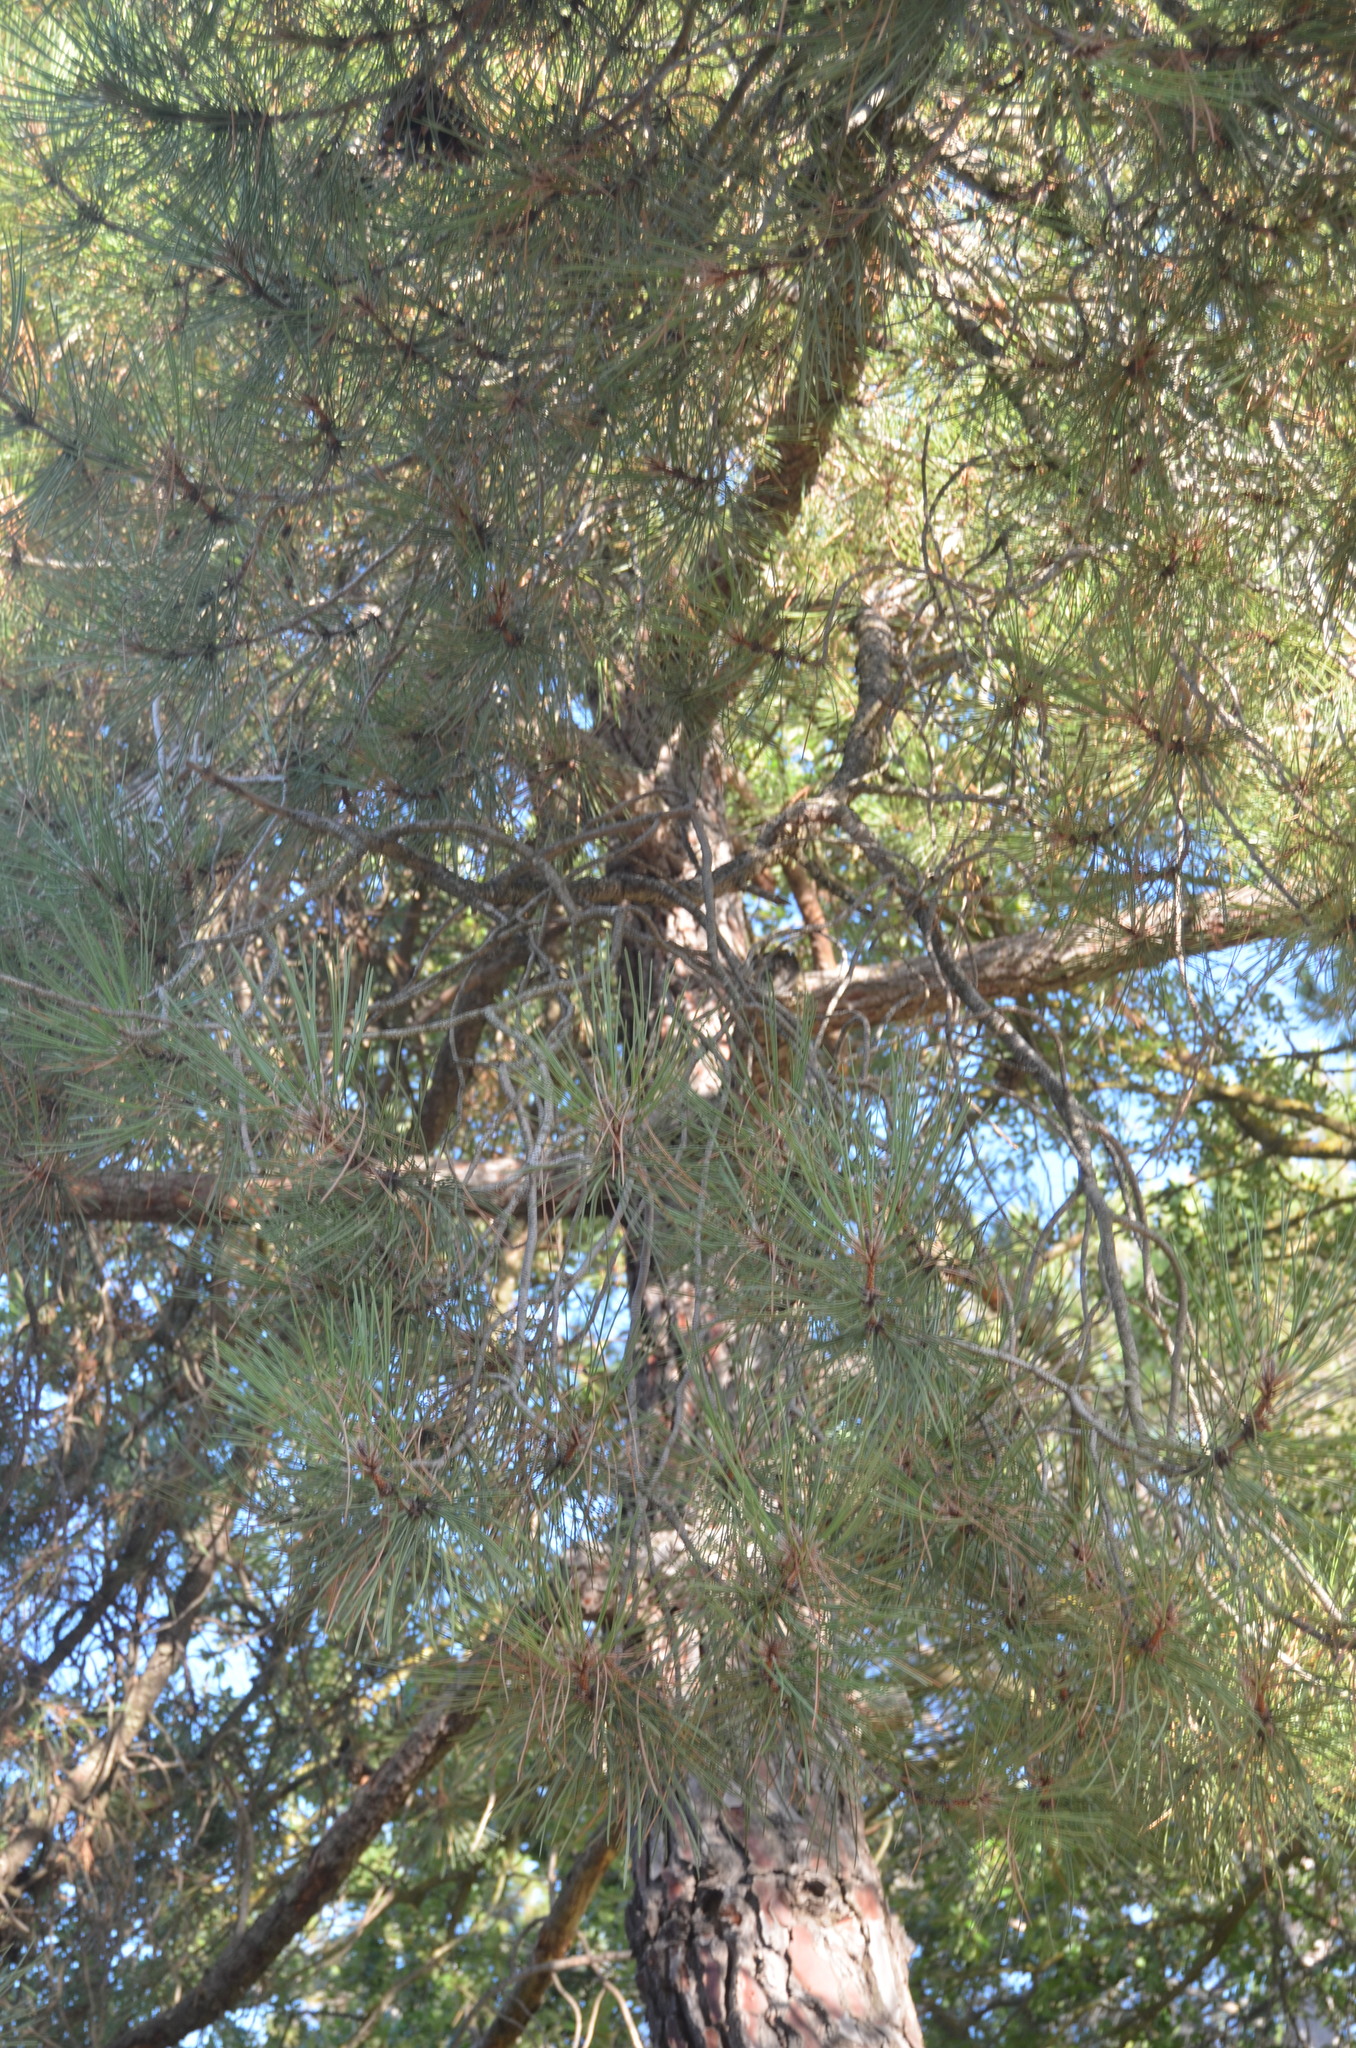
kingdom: Plantae
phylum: Tracheophyta
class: Pinopsida
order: Pinales
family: Pinaceae
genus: Pinus
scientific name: Pinus pinea
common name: Italian stone pine
